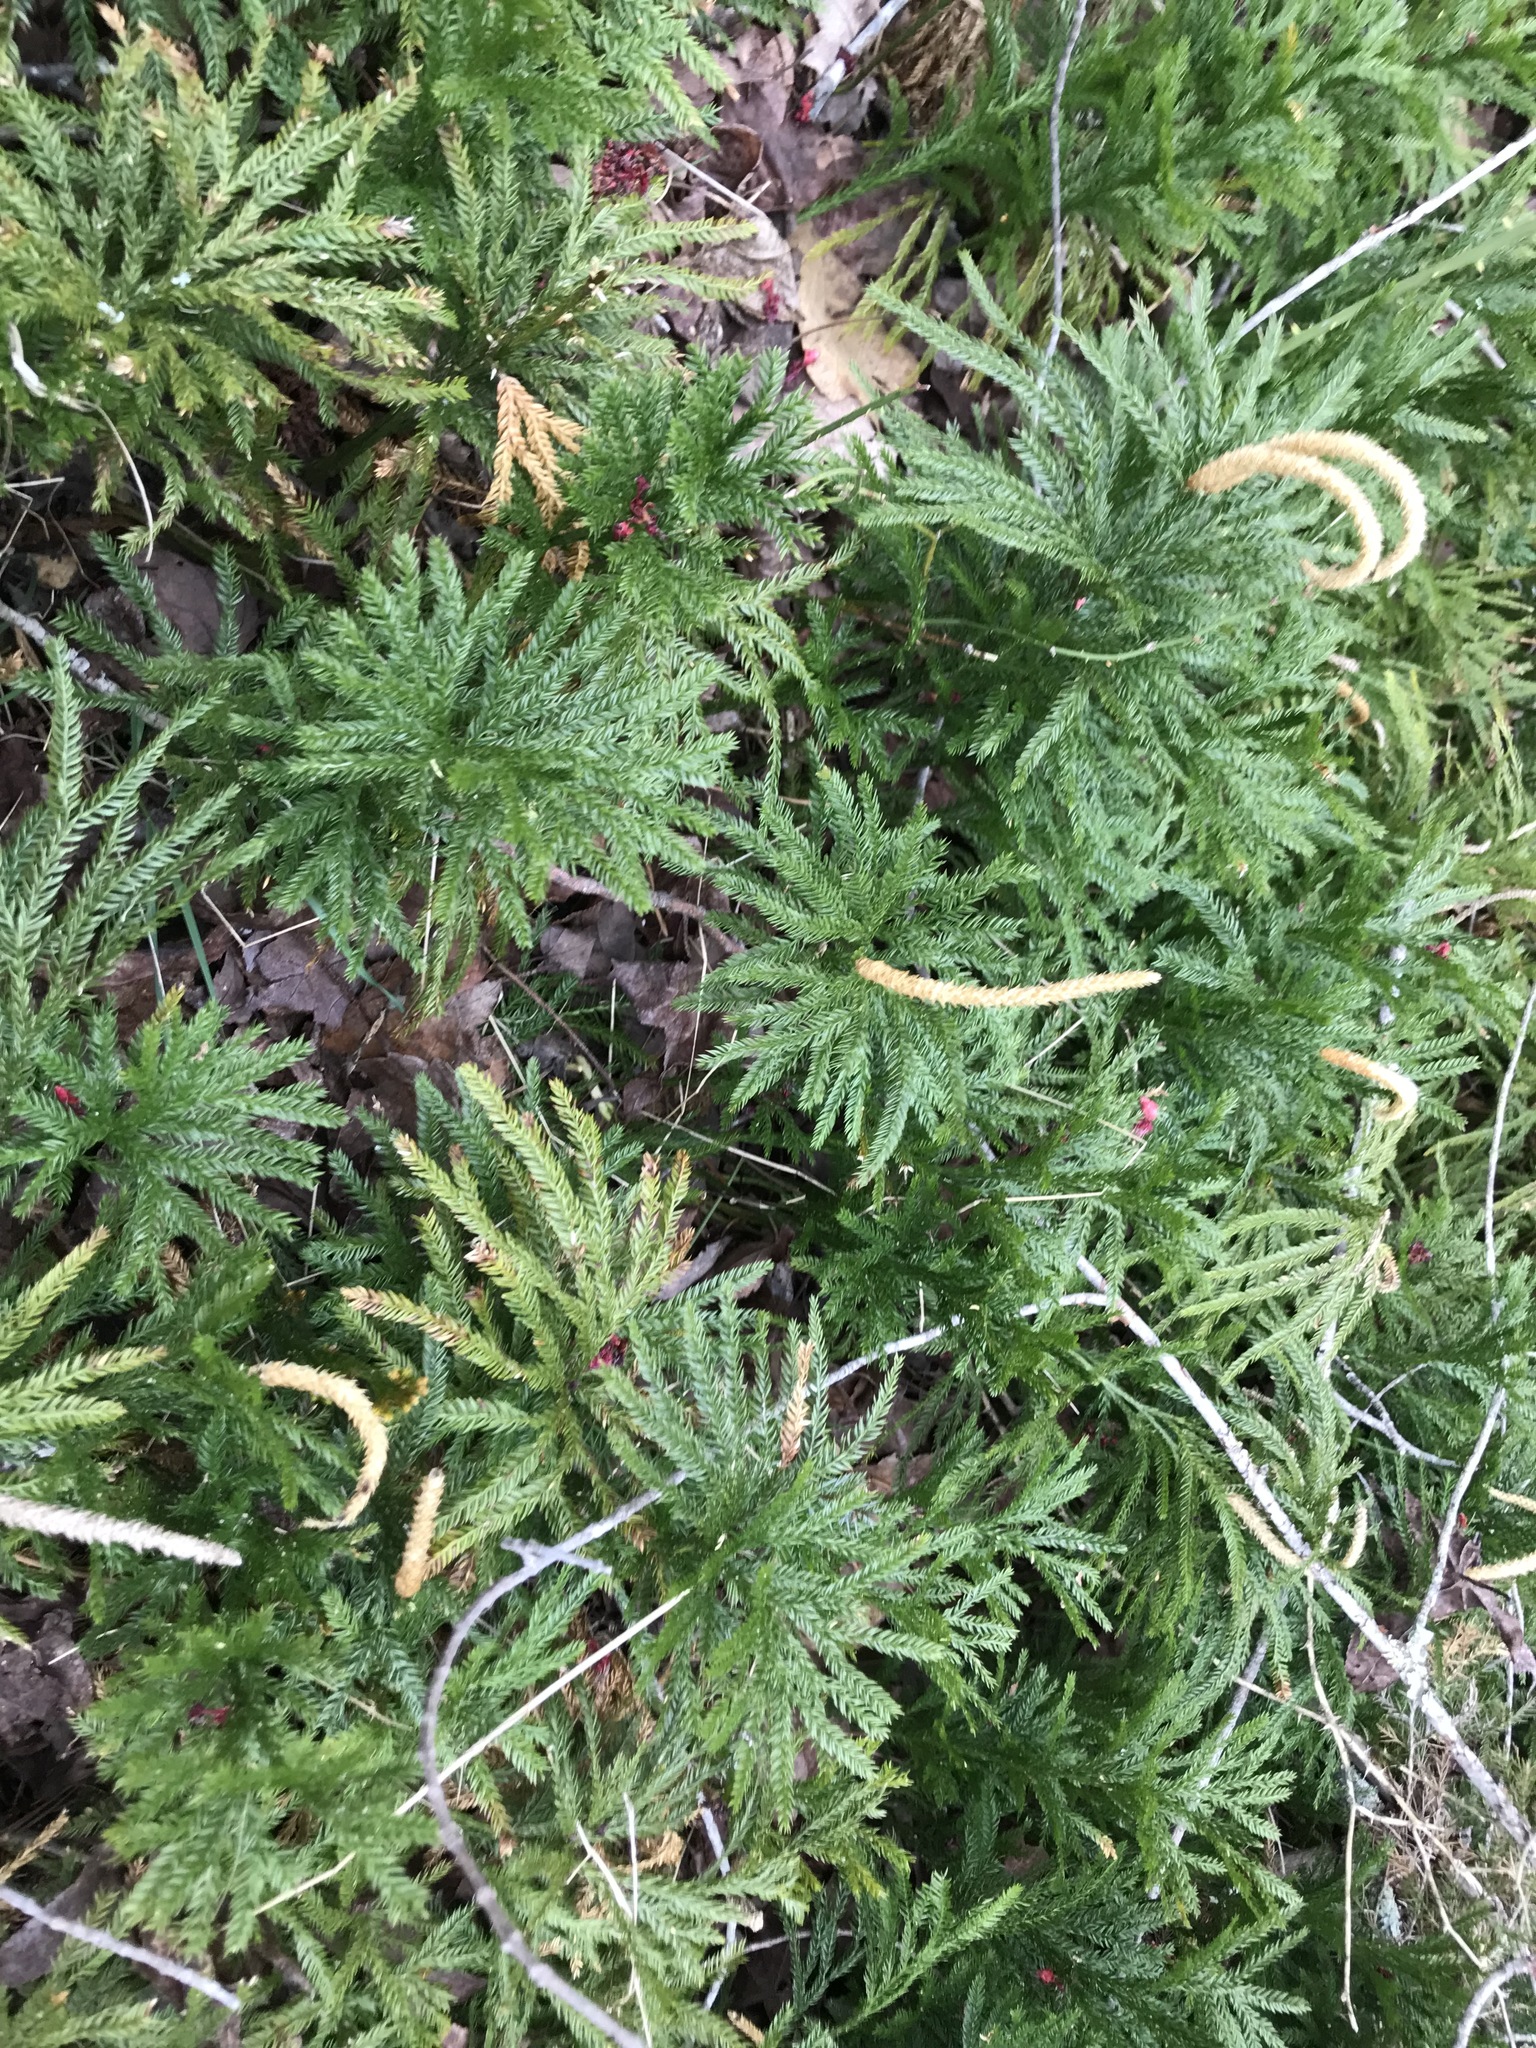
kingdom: Plantae
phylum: Tracheophyta
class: Lycopodiopsida
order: Lycopodiales
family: Lycopodiaceae
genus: Dendrolycopodium
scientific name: Dendrolycopodium obscurum
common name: Common ground-pine
